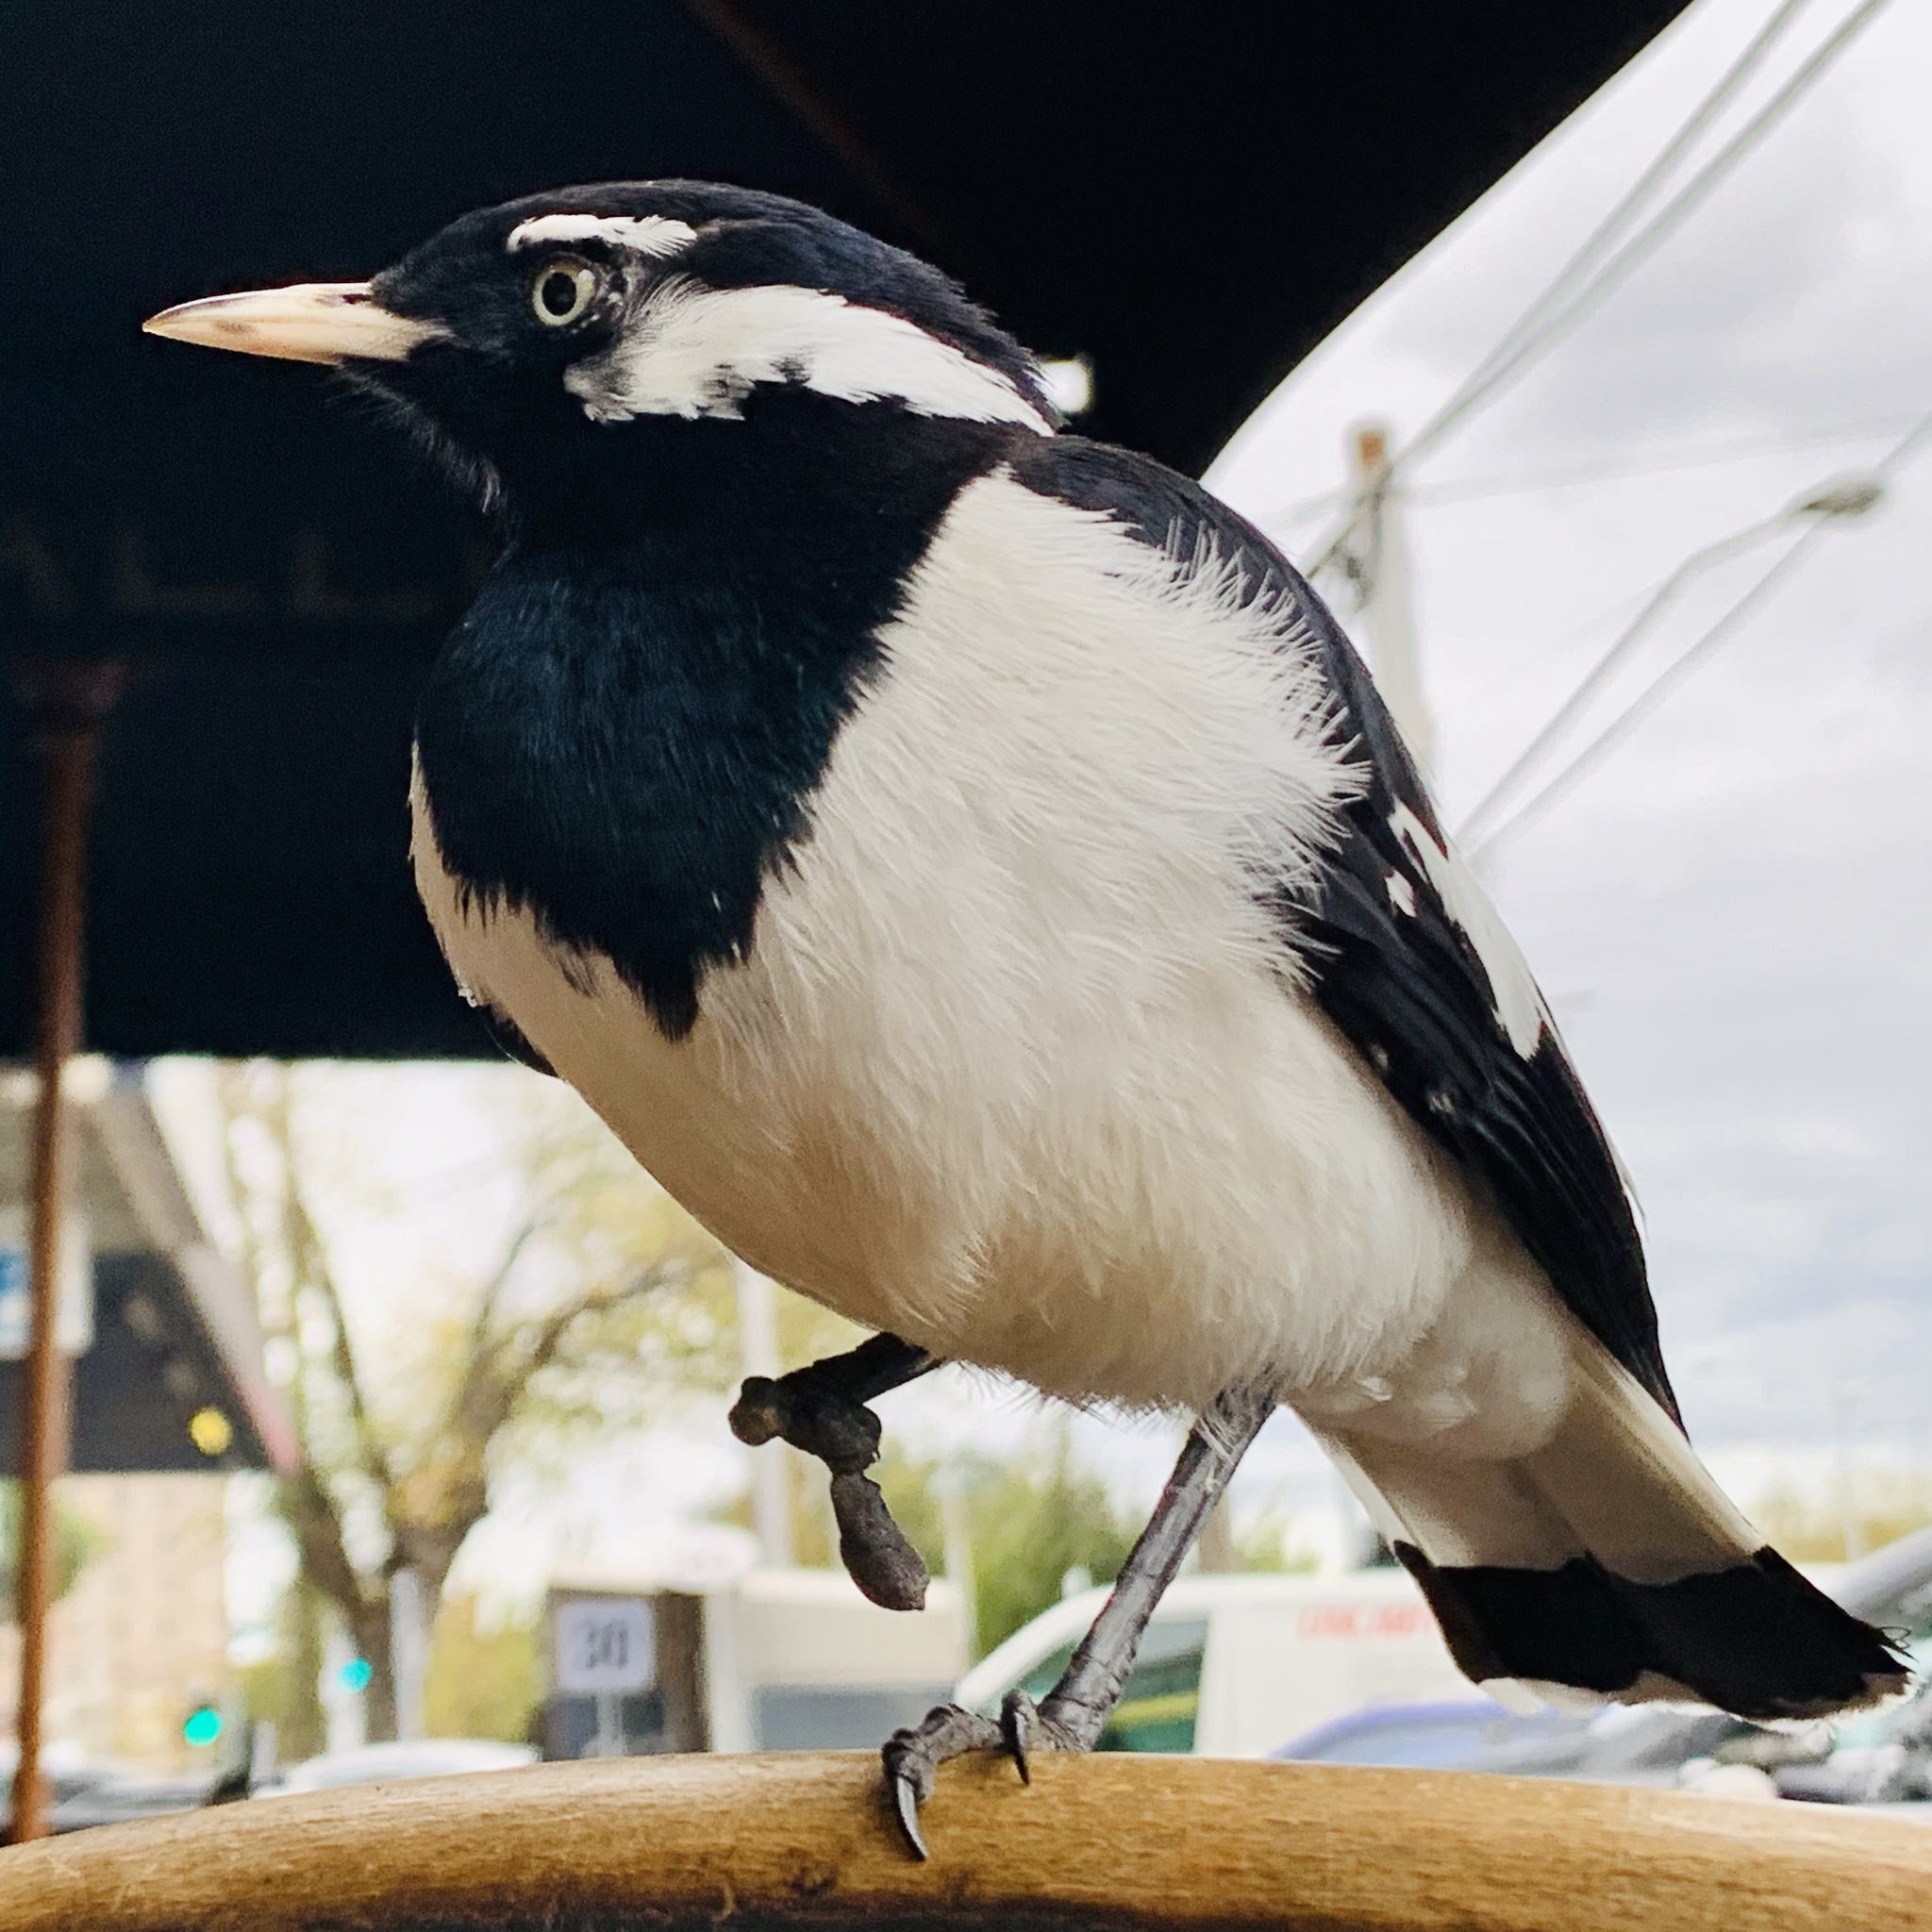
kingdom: Animalia
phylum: Chordata
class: Aves
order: Passeriformes
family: Monarchidae
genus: Grallina
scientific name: Grallina cyanoleuca
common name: Magpie-lark
